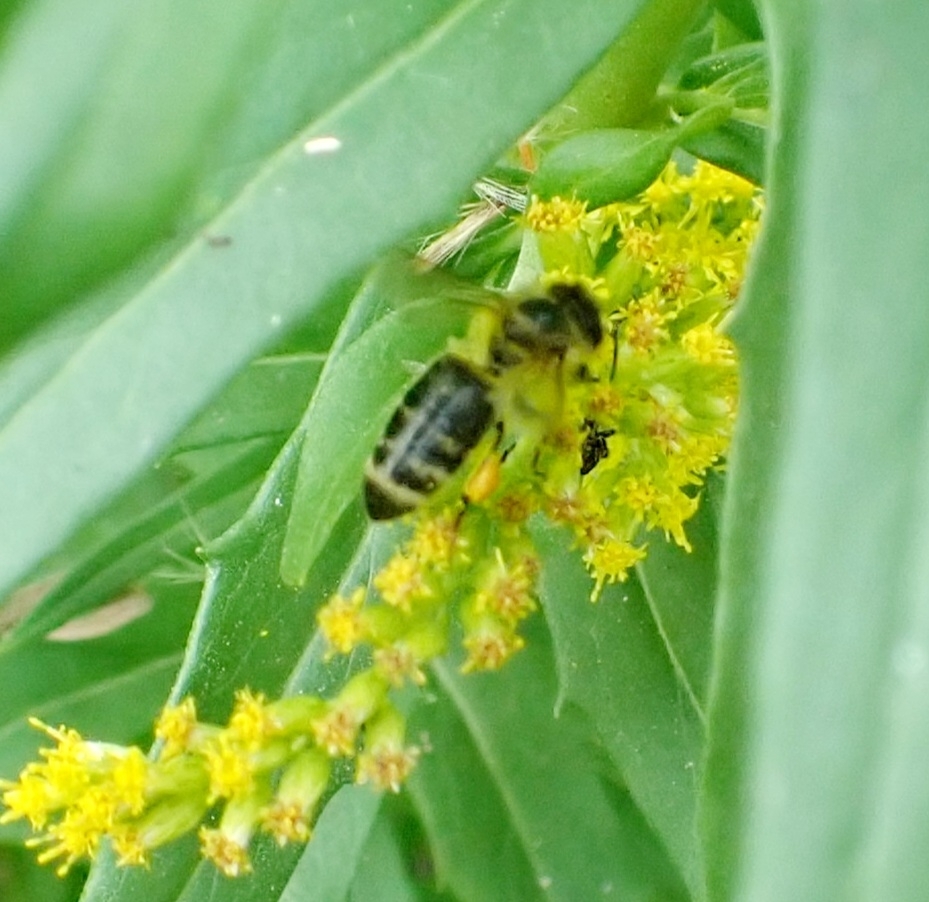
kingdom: Animalia
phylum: Arthropoda
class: Insecta
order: Hymenoptera
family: Apidae
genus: Apis
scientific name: Apis mellifera
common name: Honey bee
